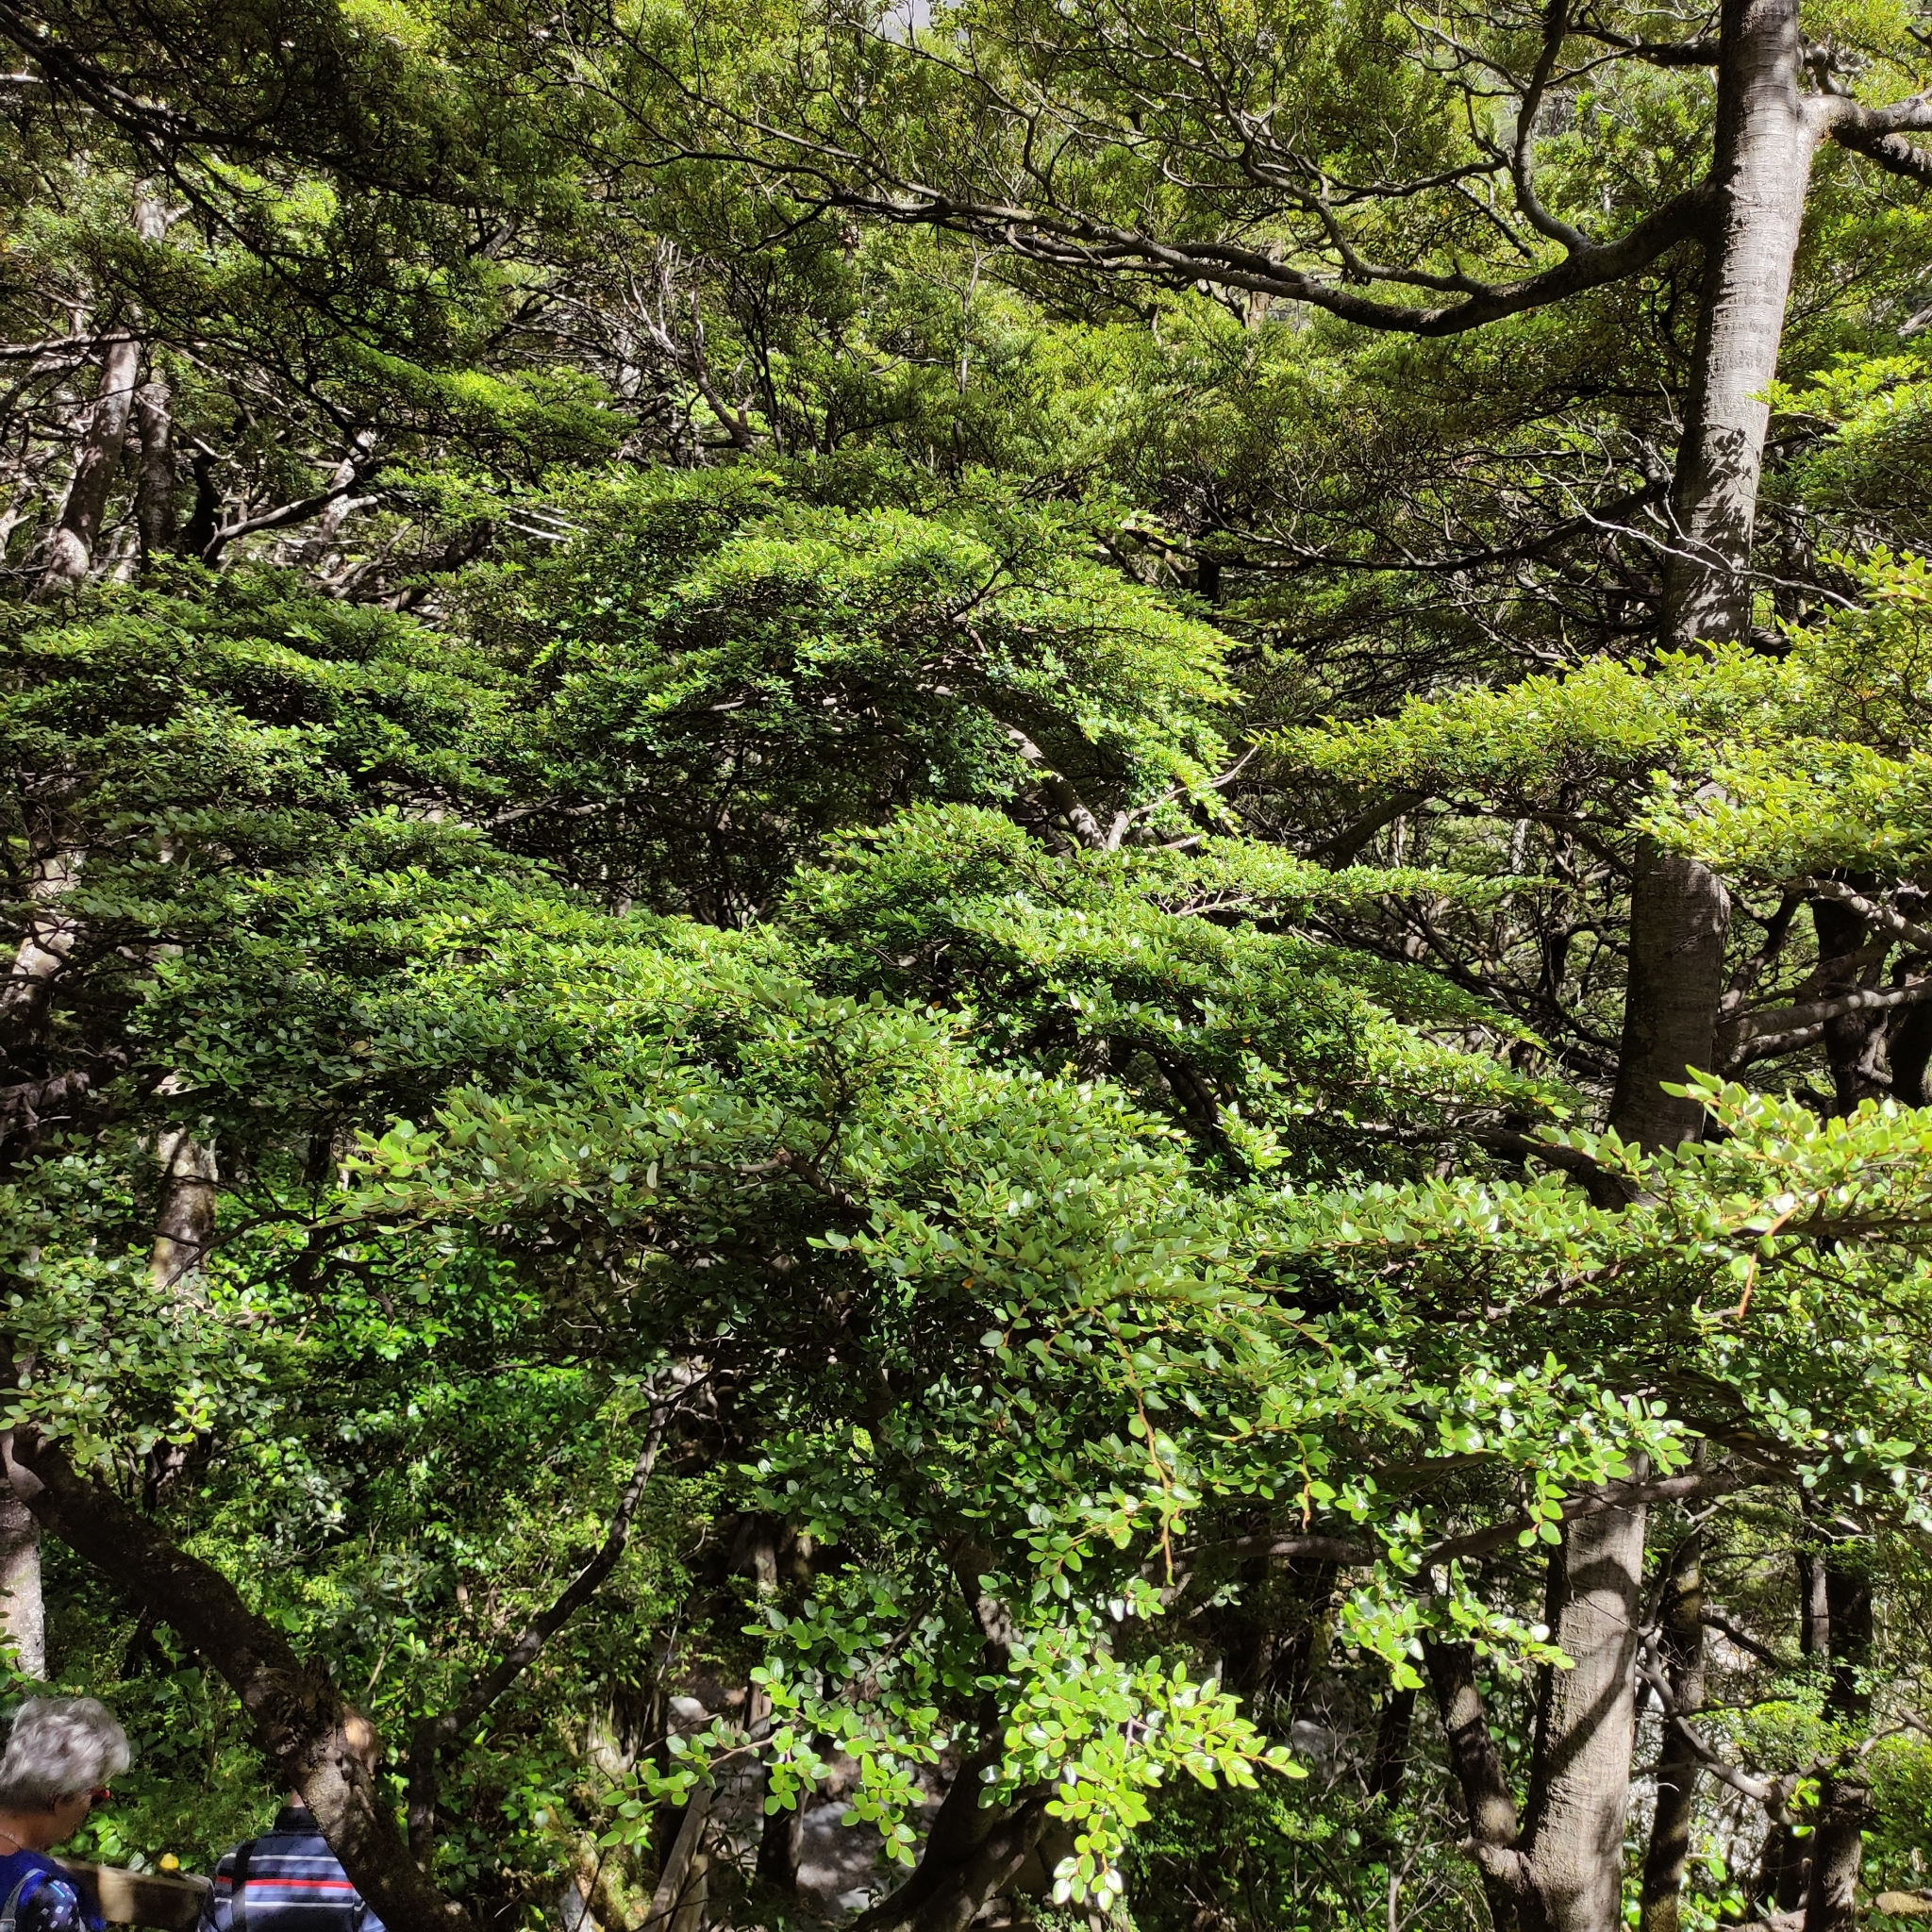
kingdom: Plantae
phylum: Tracheophyta
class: Magnoliopsida
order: Fagales
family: Nothofagaceae
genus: Nothofagus
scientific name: Nothofagus cliffortioides
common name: Mountain beech
